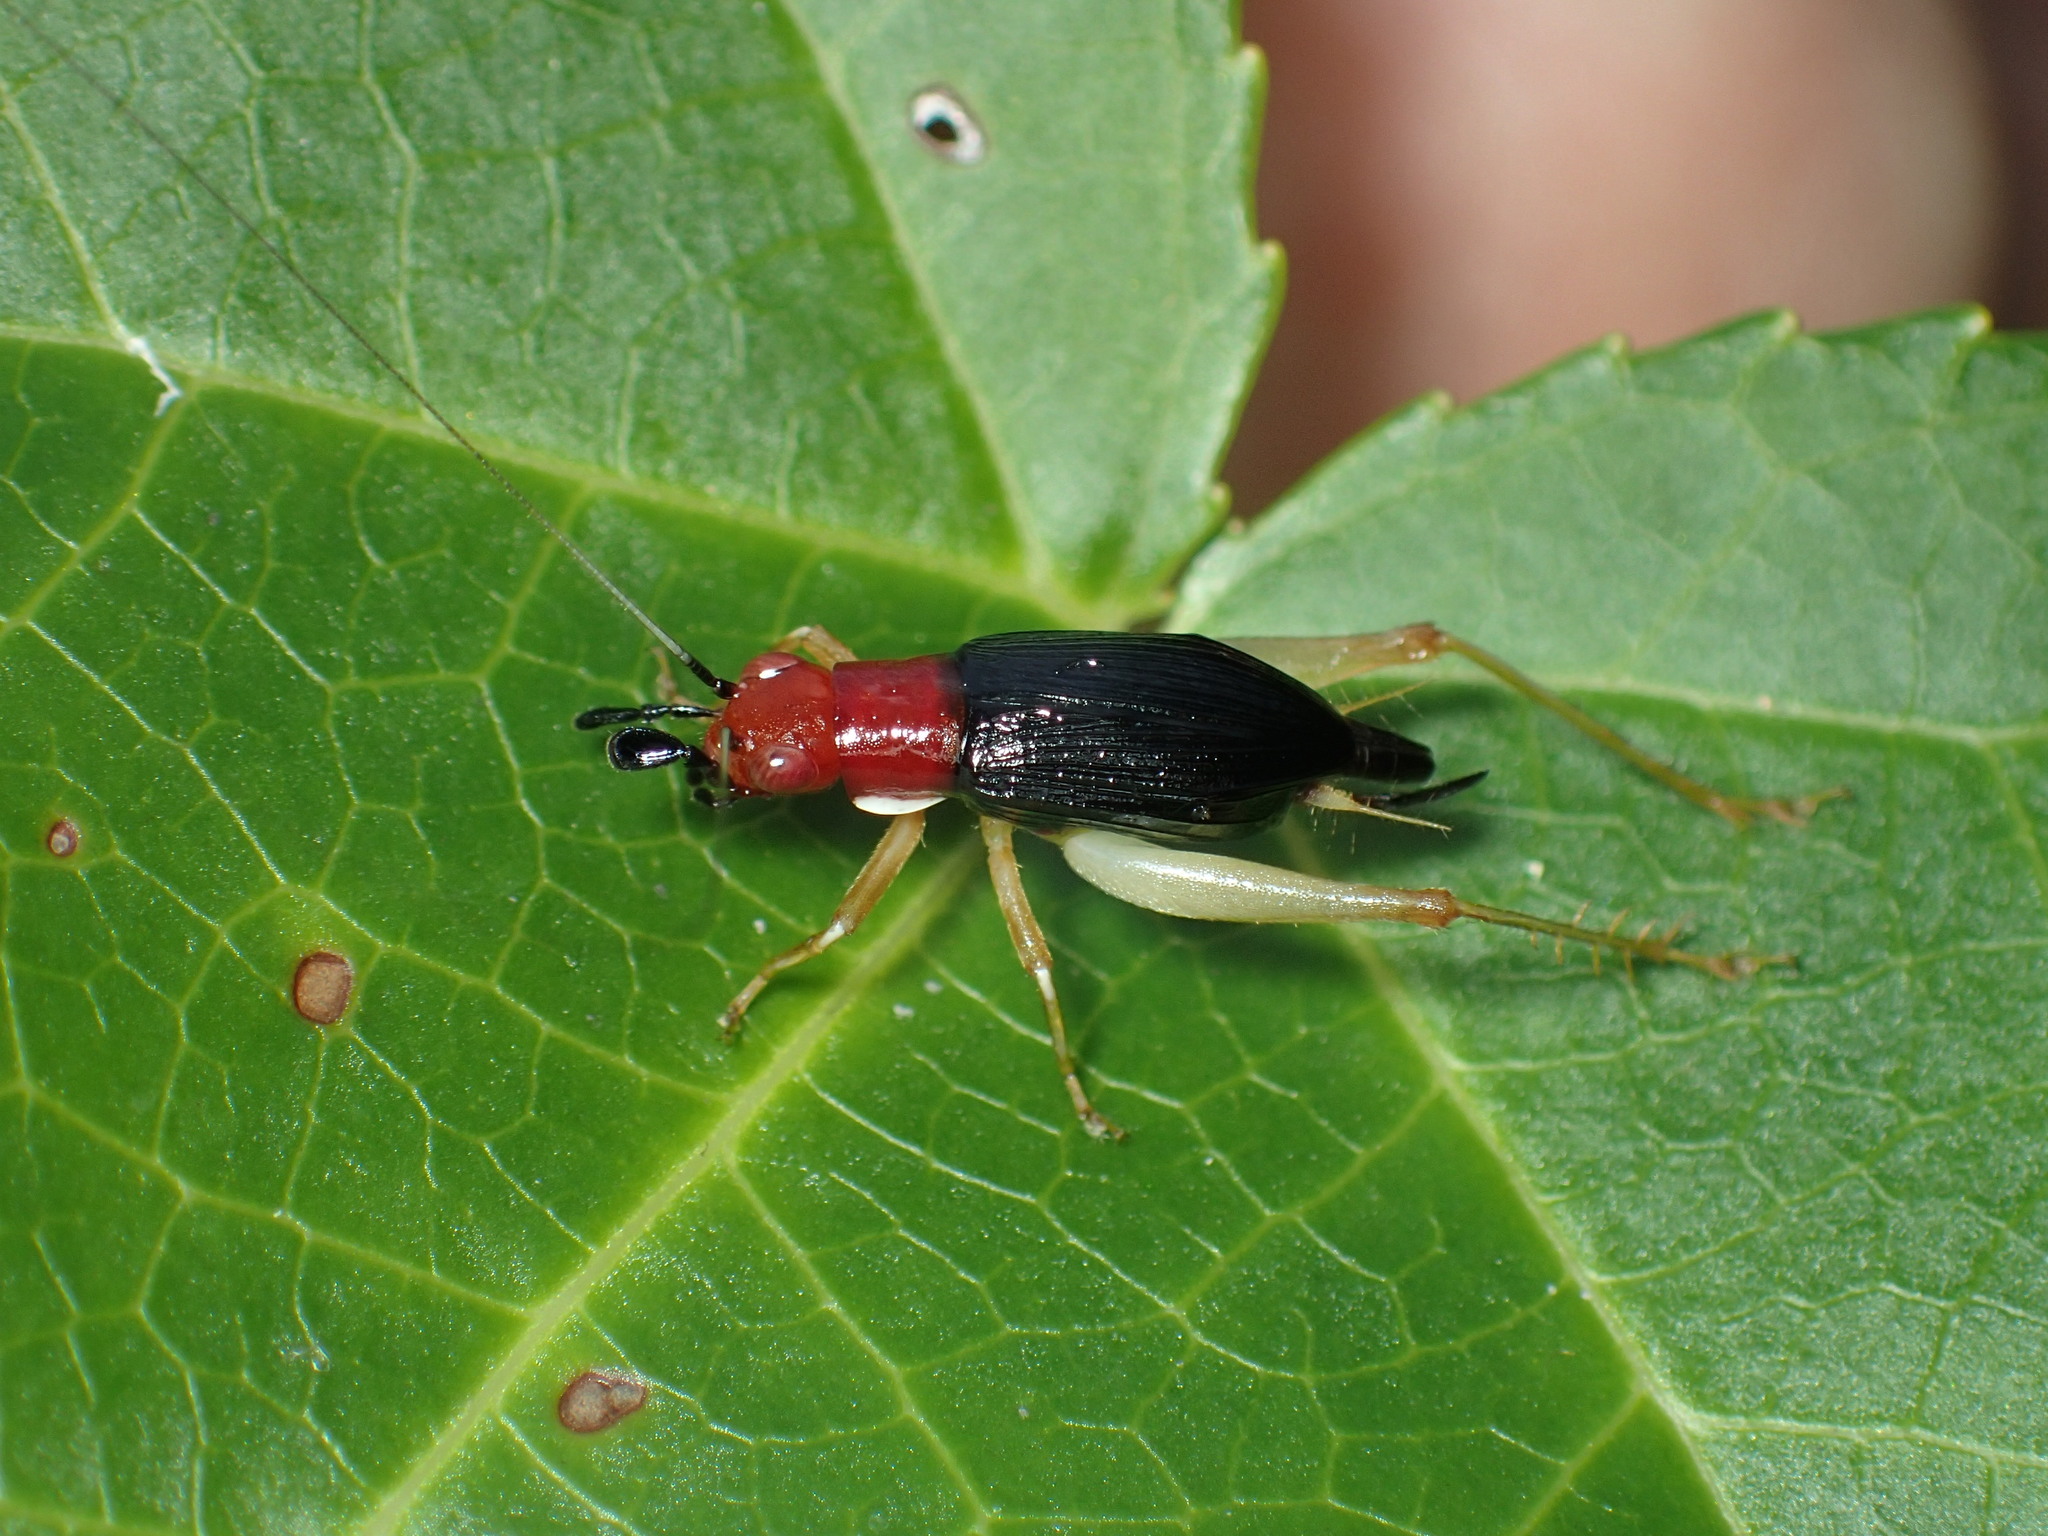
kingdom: Animalia
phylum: Arthropoda
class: Insecta
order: Orthoptera
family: Trigonidiidae
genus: Phyllopalpus
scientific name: Phyllopalpus pulchellus
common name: Handsome trig
